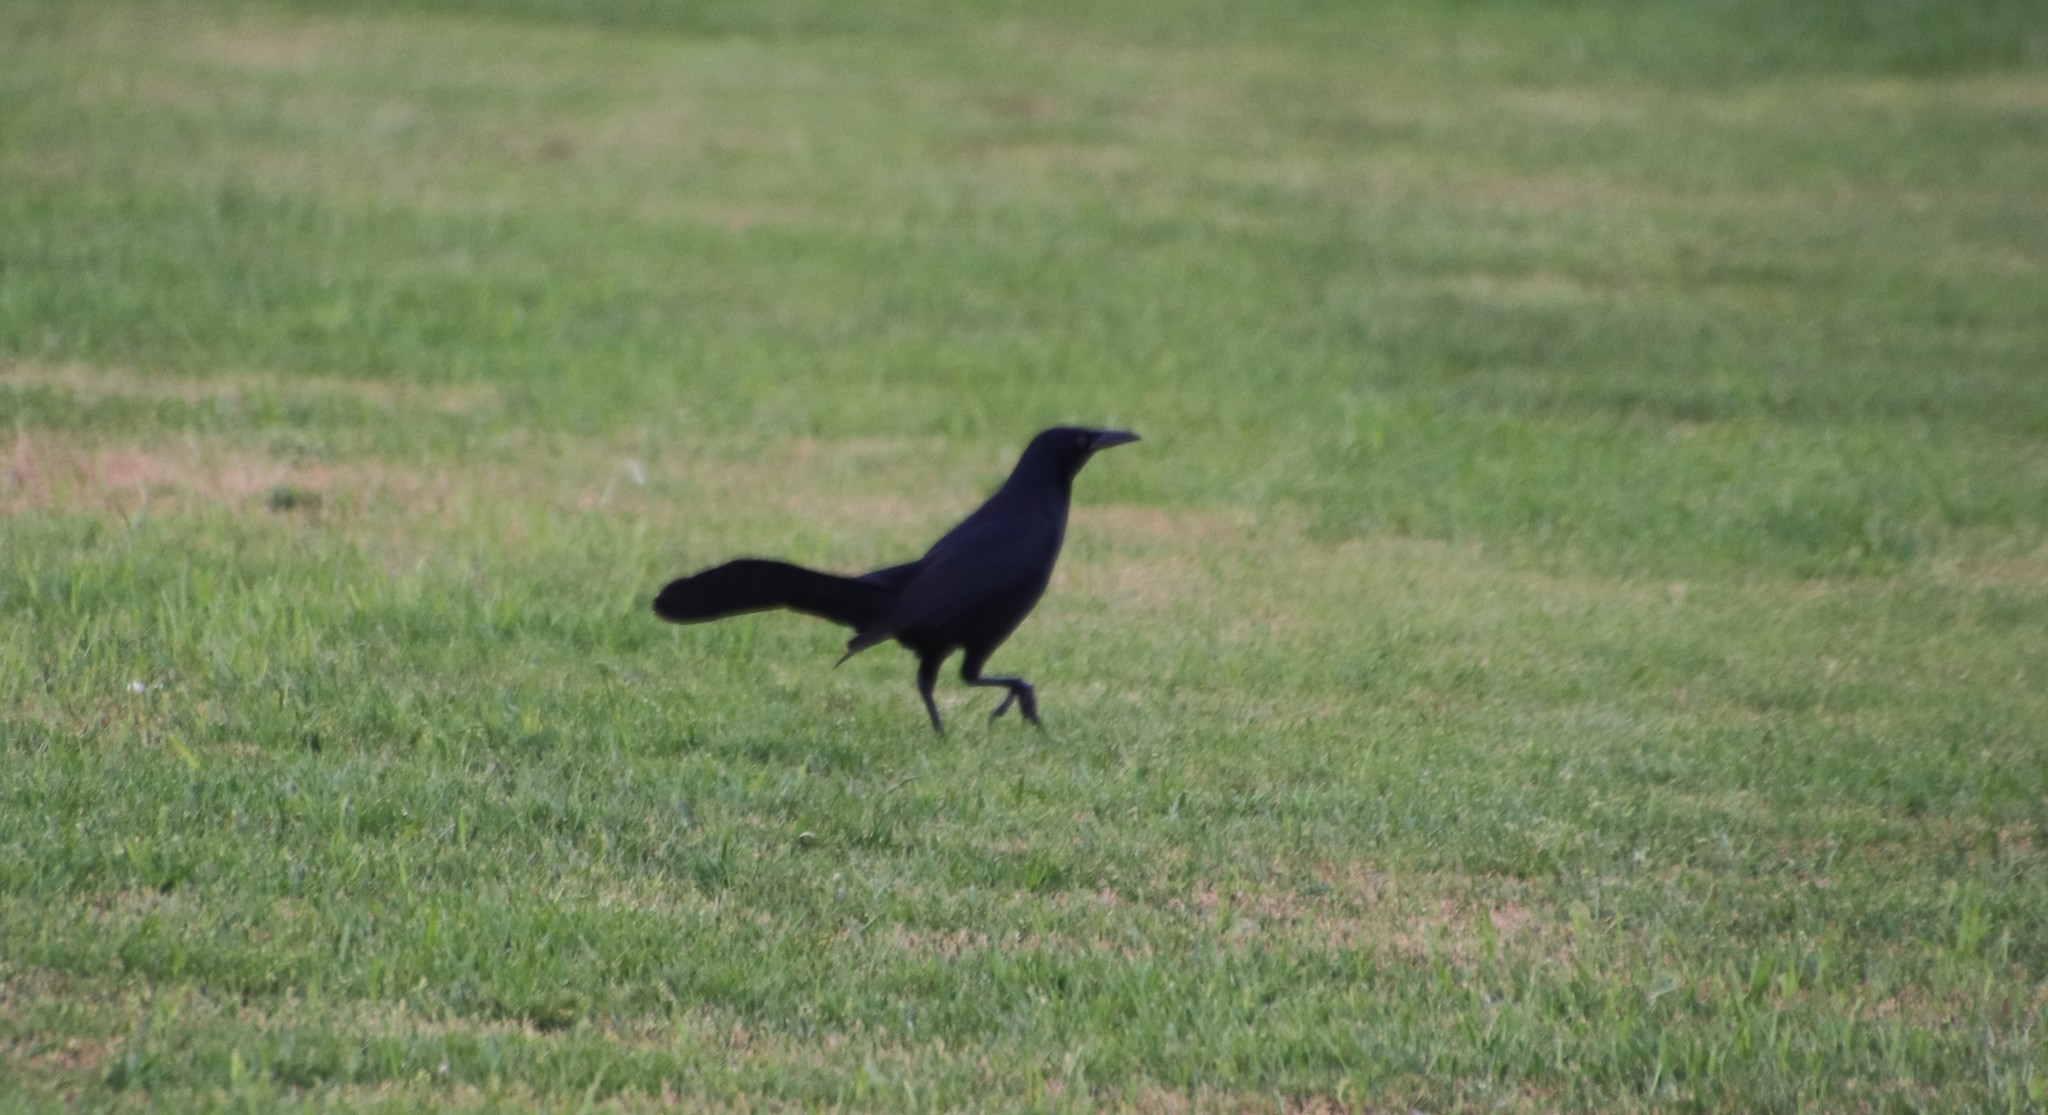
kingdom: Animalia
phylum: Chordata
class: Aves
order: Passeriformes
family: Icteridae
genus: Quiscalus
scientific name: Quiscalus mexicanus
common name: Great-tailed grackle
